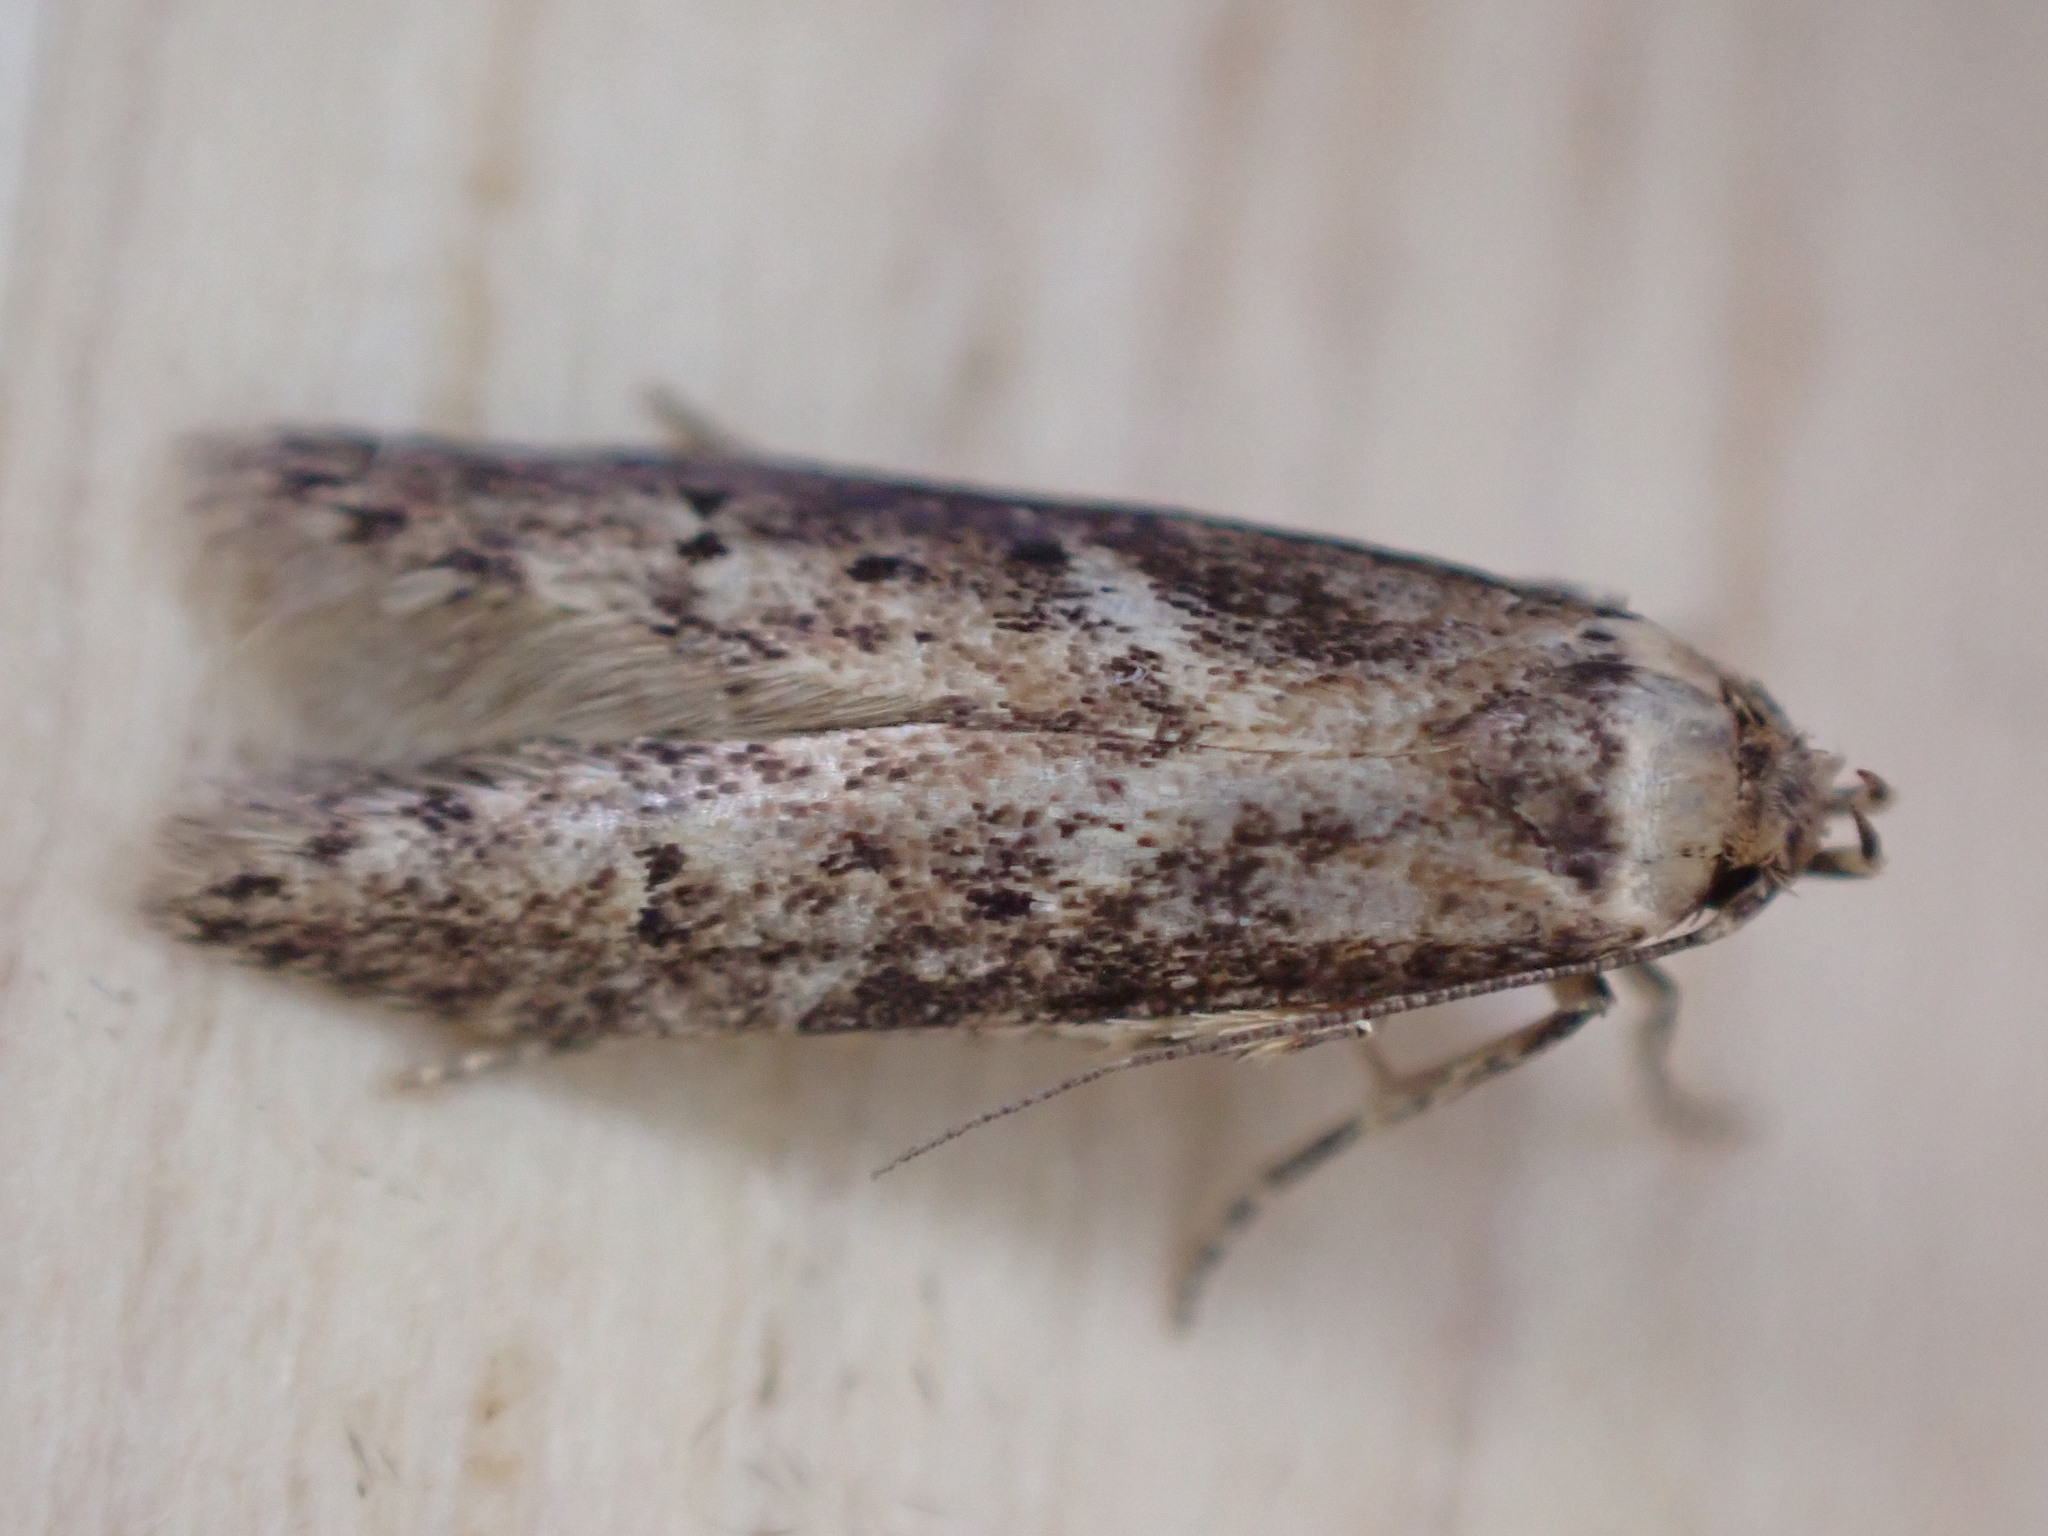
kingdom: Animalia
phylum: Arthropoda
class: Insecta
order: Lepidoptera
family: Blastobasidae
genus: Blastobasis
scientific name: Blastobasis adustella
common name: Dingy dowd
